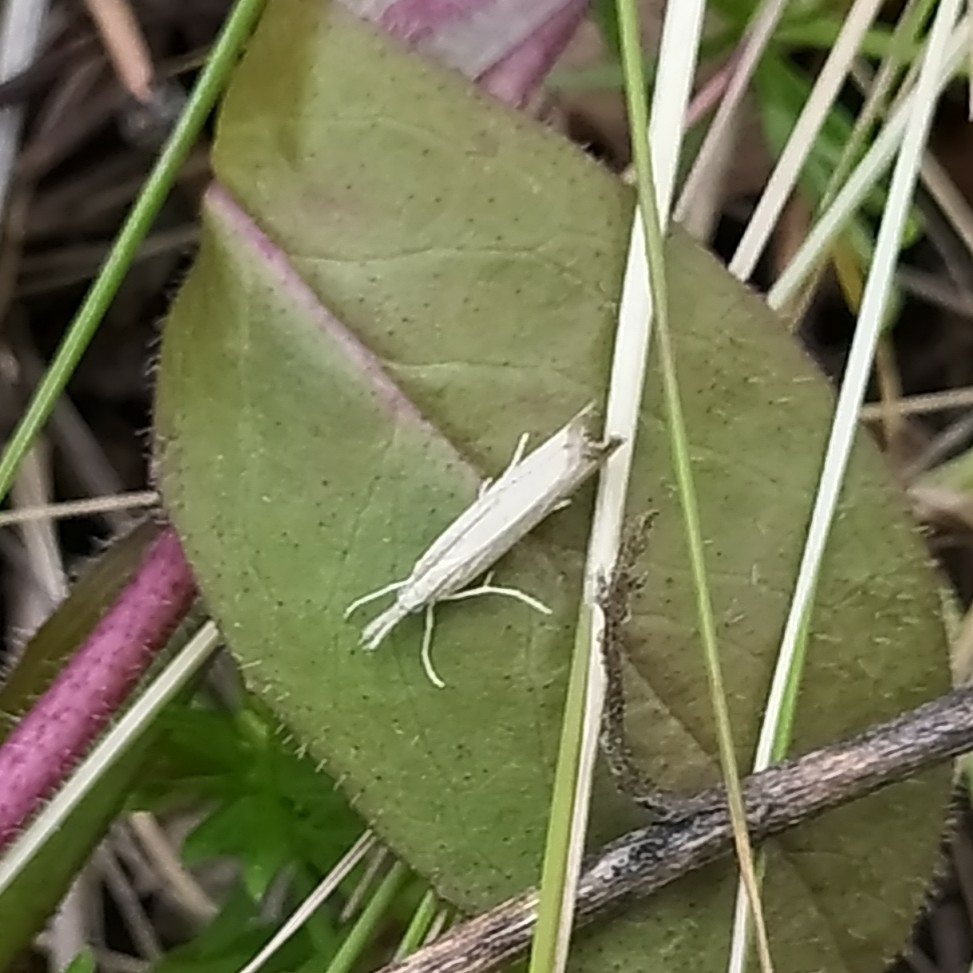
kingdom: Animalia
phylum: Arthropoda
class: Insecta
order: Lepidoptera
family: Crambidae
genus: Agriphila
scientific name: Agriphila straminella
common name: Straw grass-veneer
